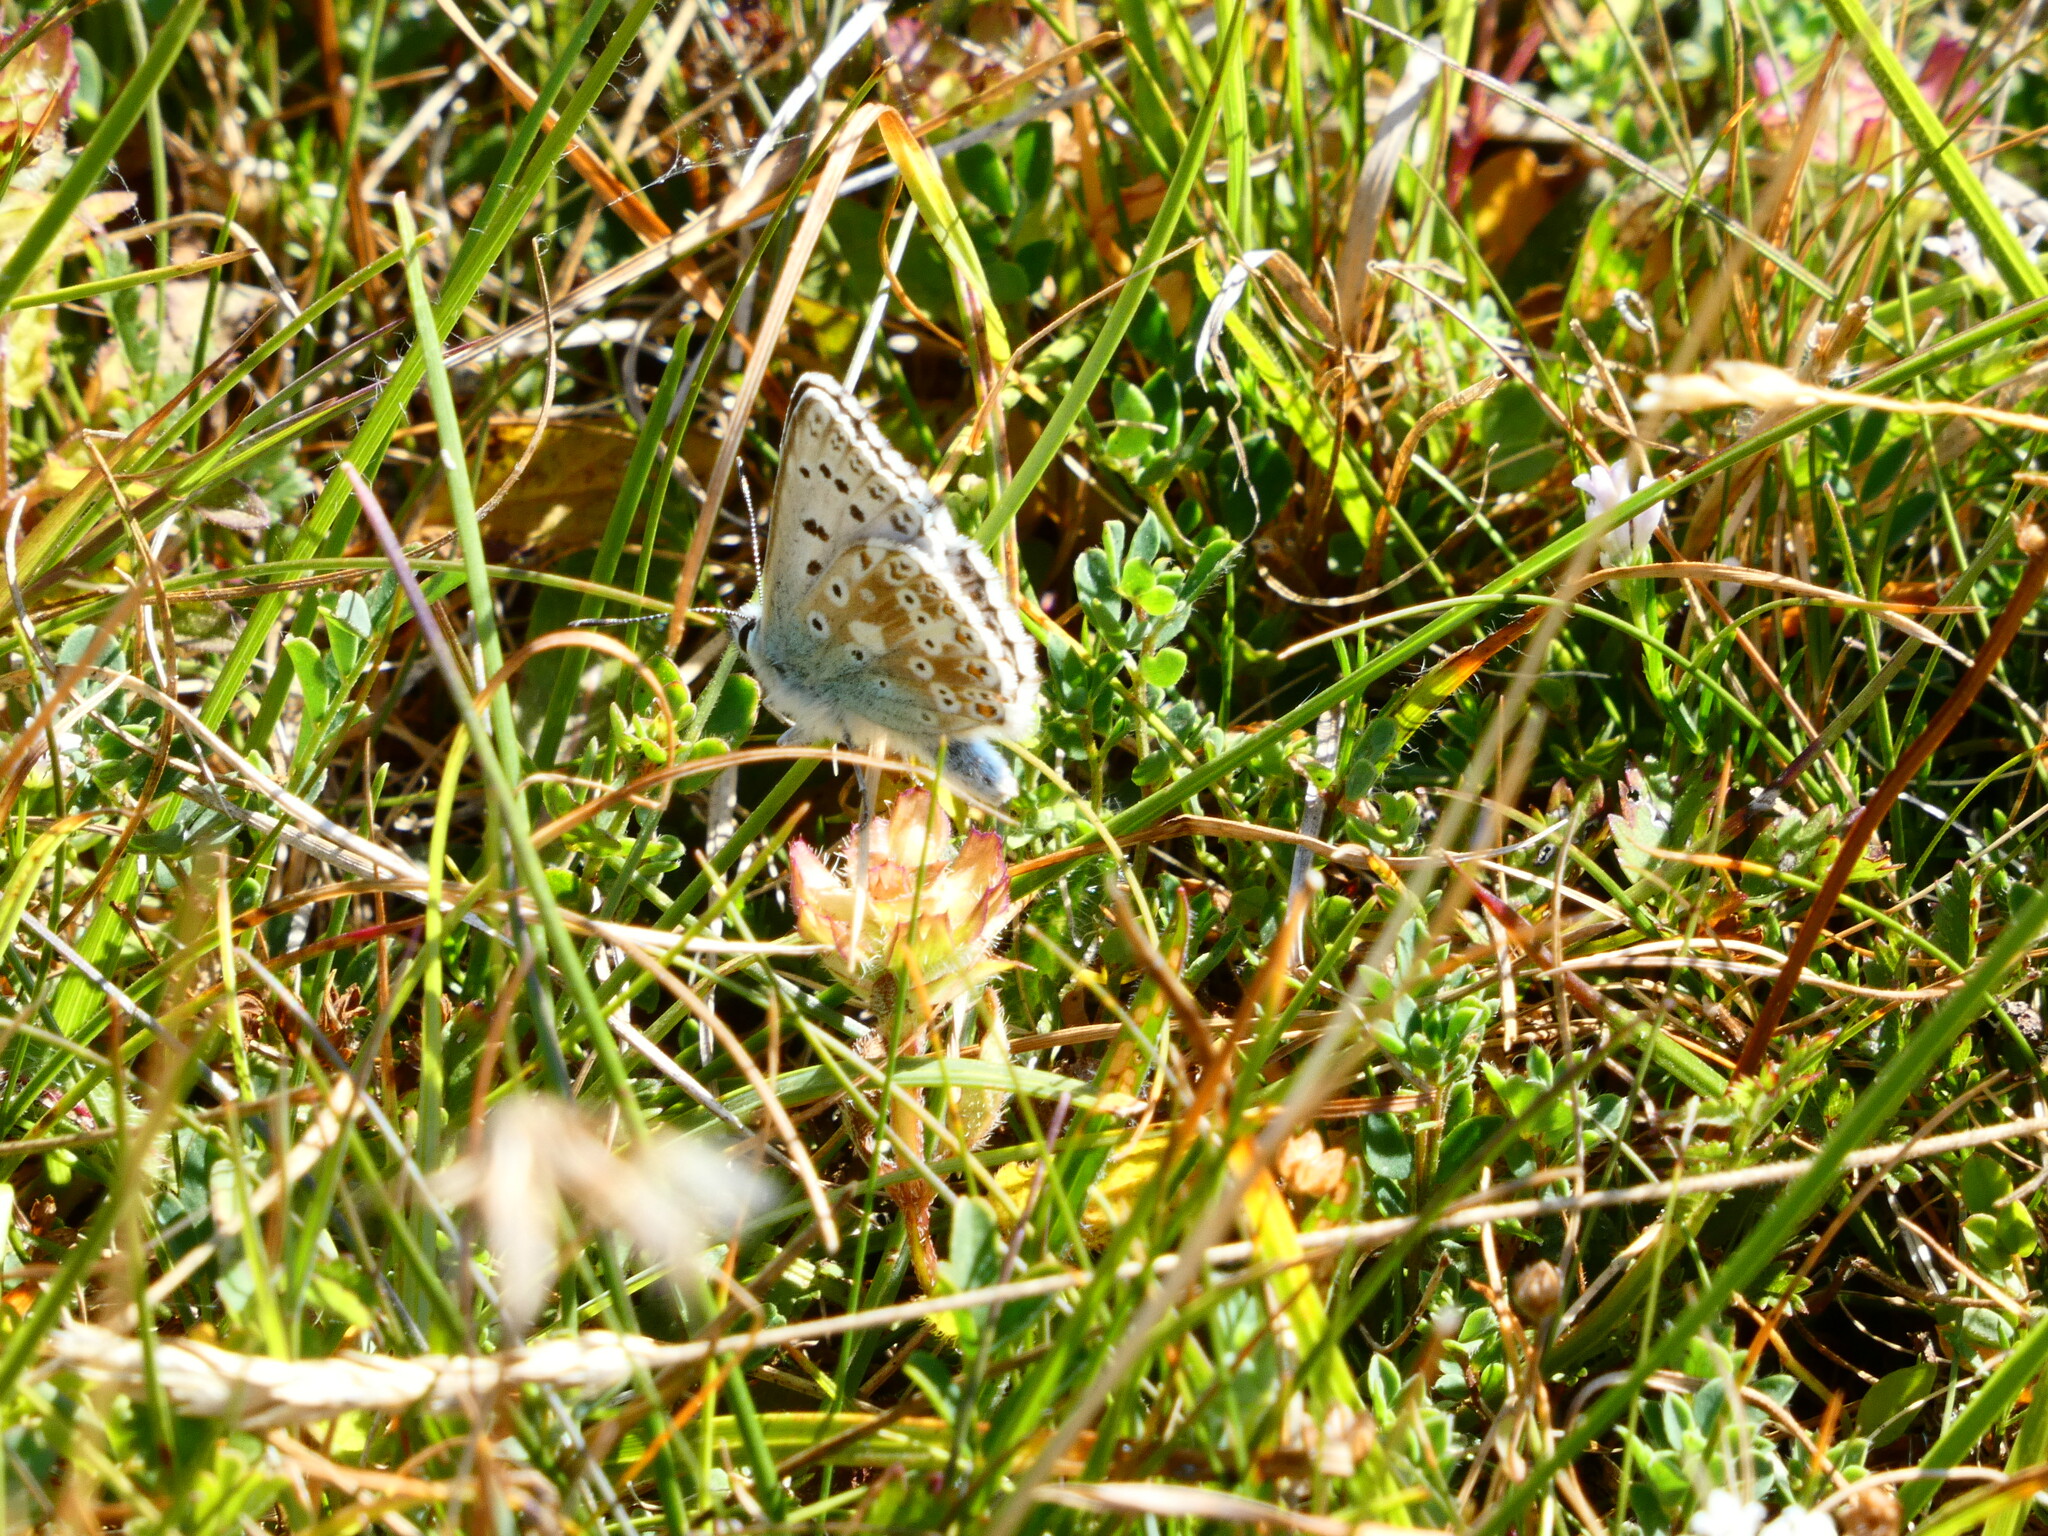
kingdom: Animalia
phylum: Arthropoda
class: Insecta
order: Lepidoptera
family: Lycaenidae
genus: Lysandra
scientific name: Lysandra coridon
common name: Chalkhill blue
